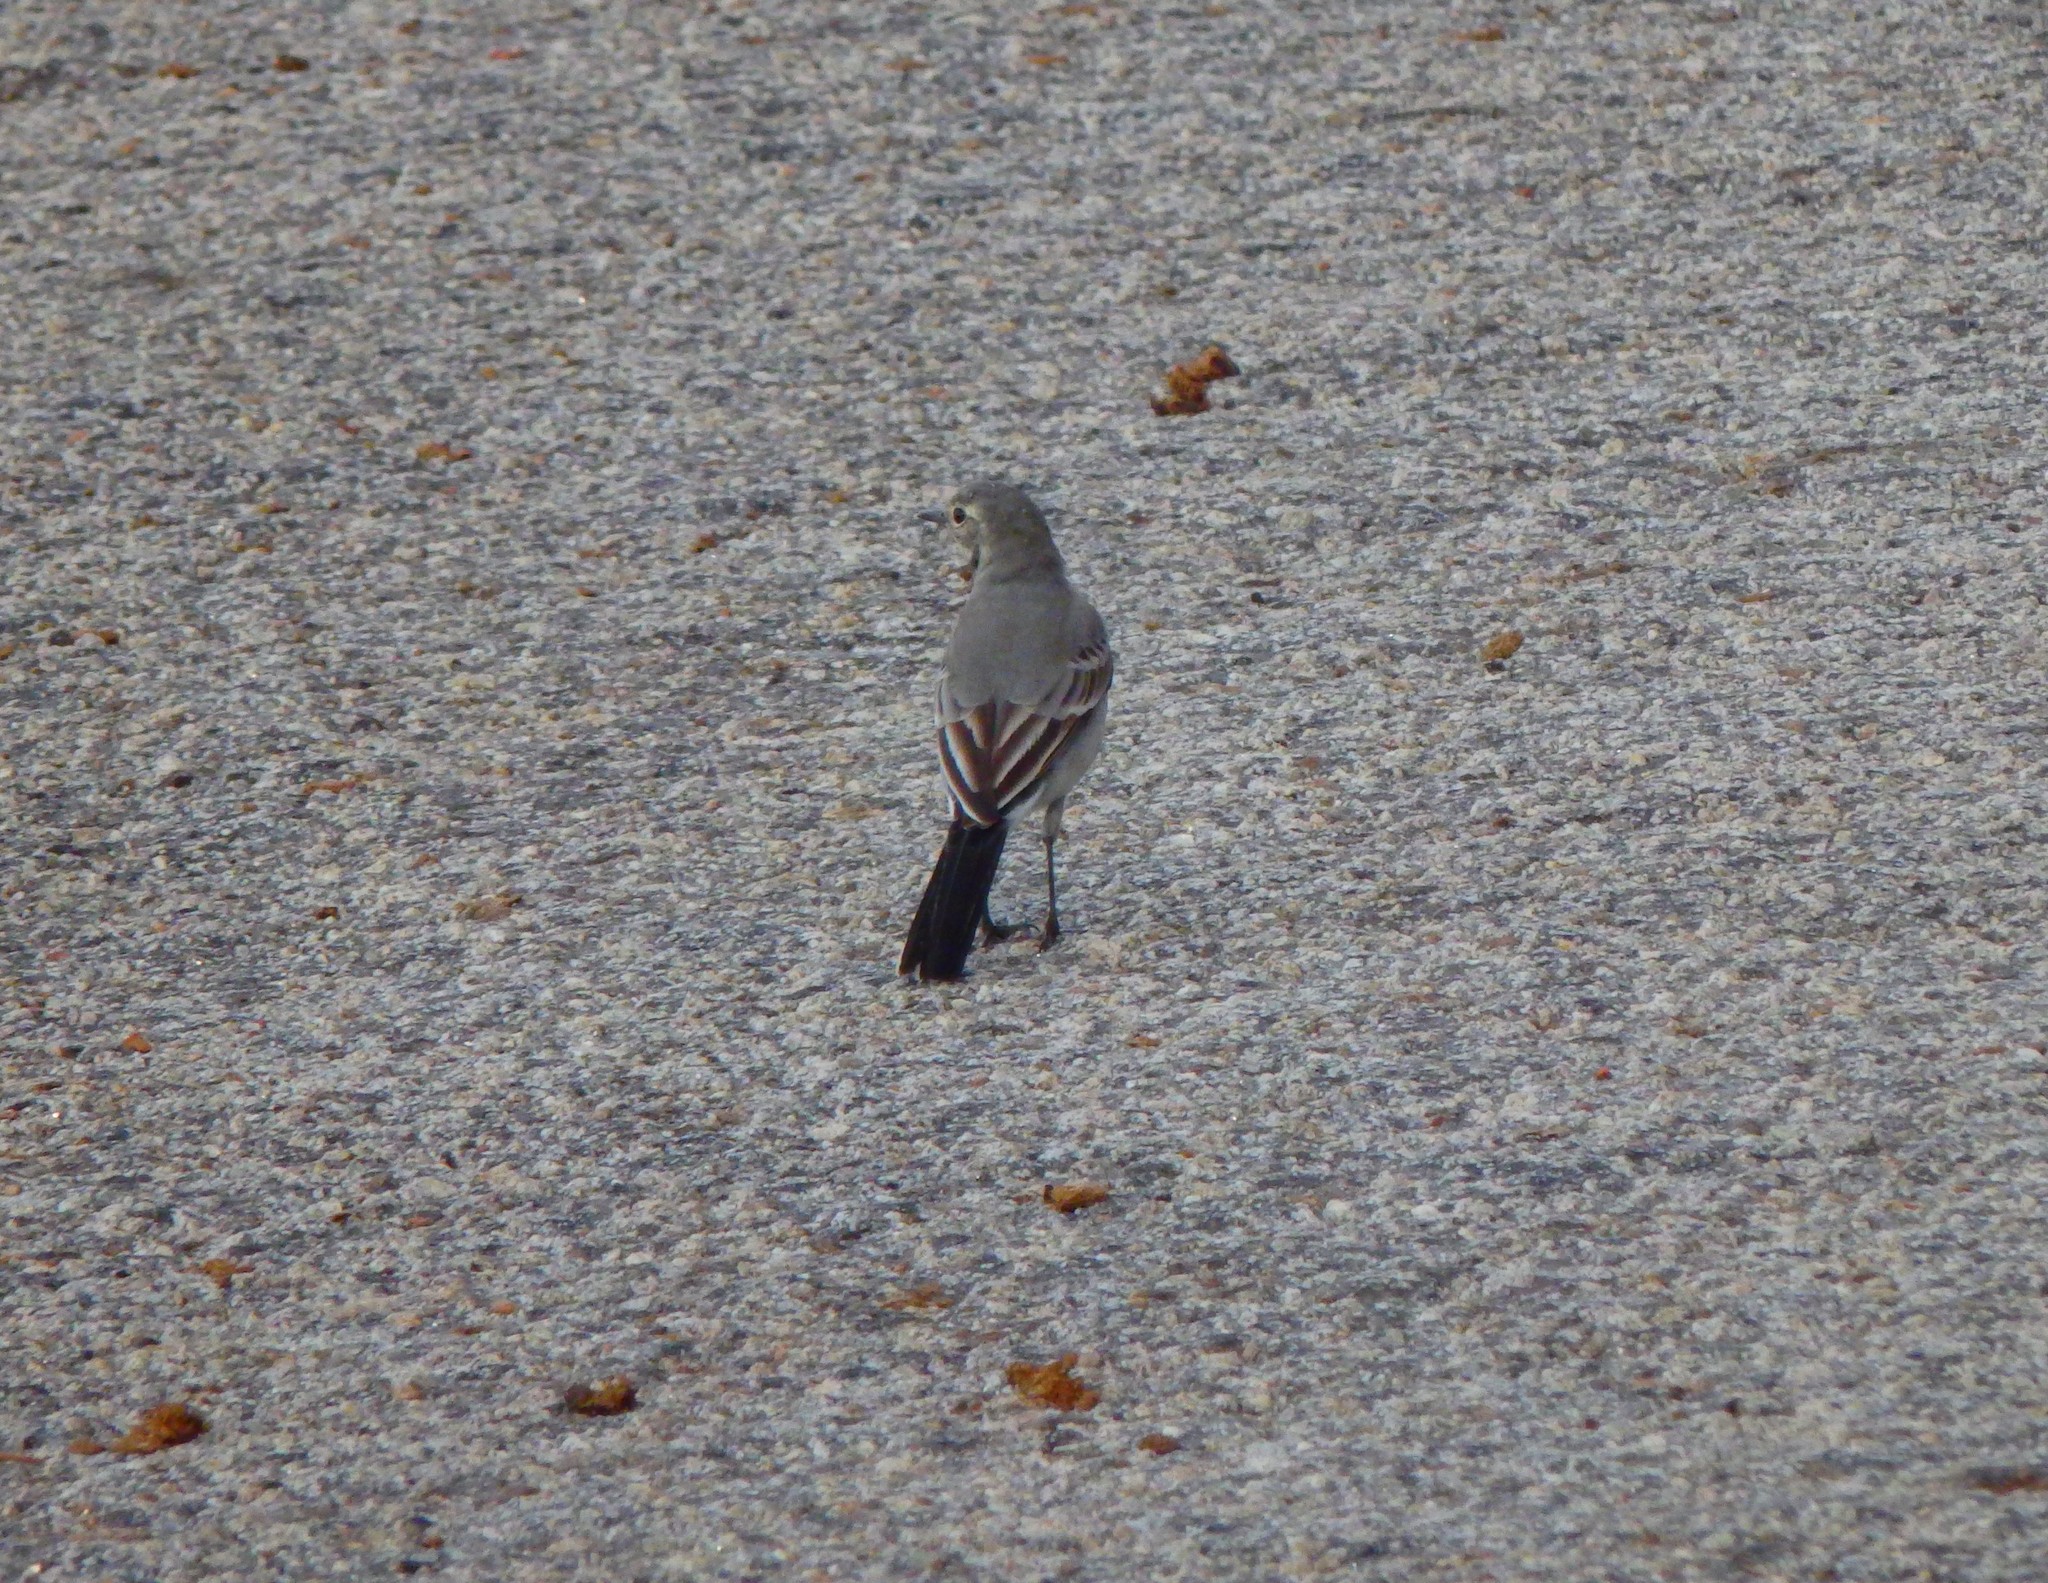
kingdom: Animalia
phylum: Chordata
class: Aves
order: Passeriformes
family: Motacillidae
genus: Motacilla
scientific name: Motacilla alba
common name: White wagtail
